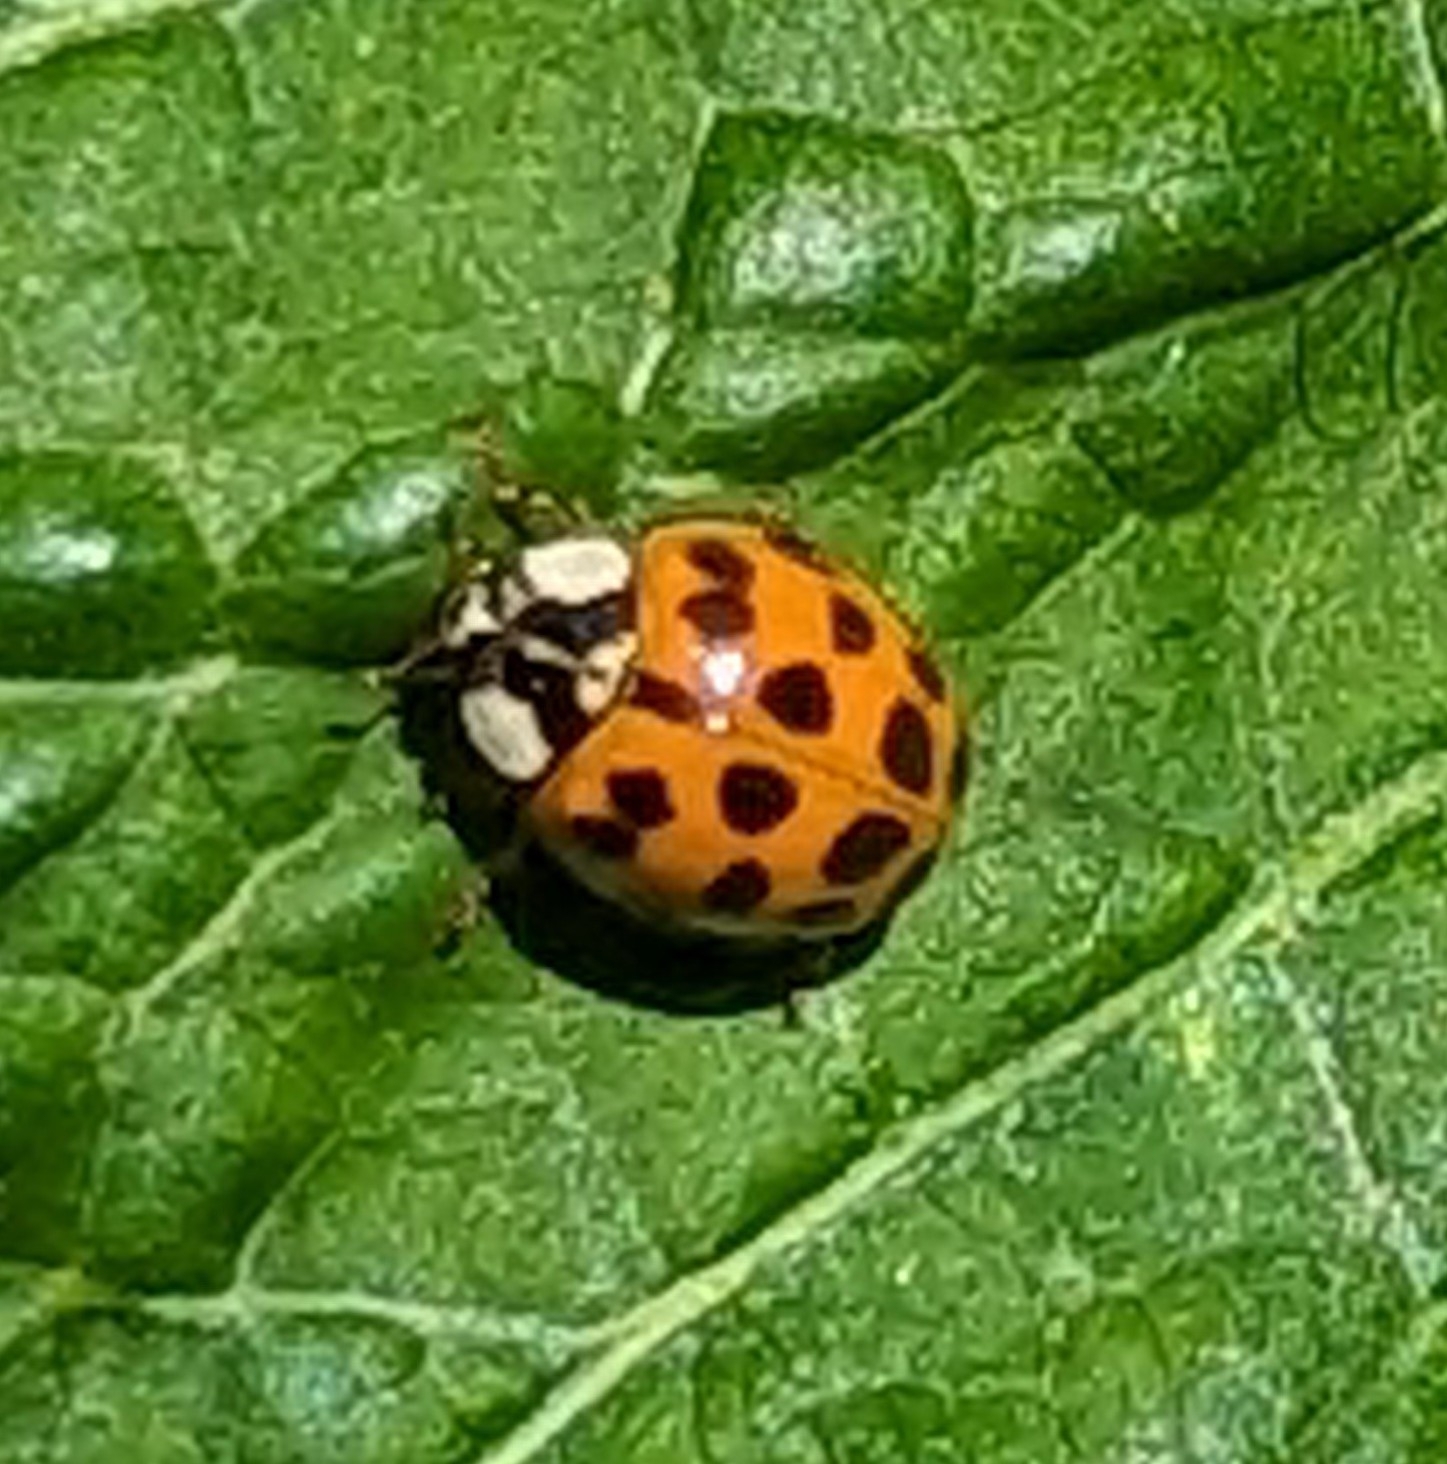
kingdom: Animalia
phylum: Arthropoda
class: Insecta
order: Coleoptera
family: Coccinellidae
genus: Harmonia
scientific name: Harmonia axyridis
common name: Harlequin ladybird
